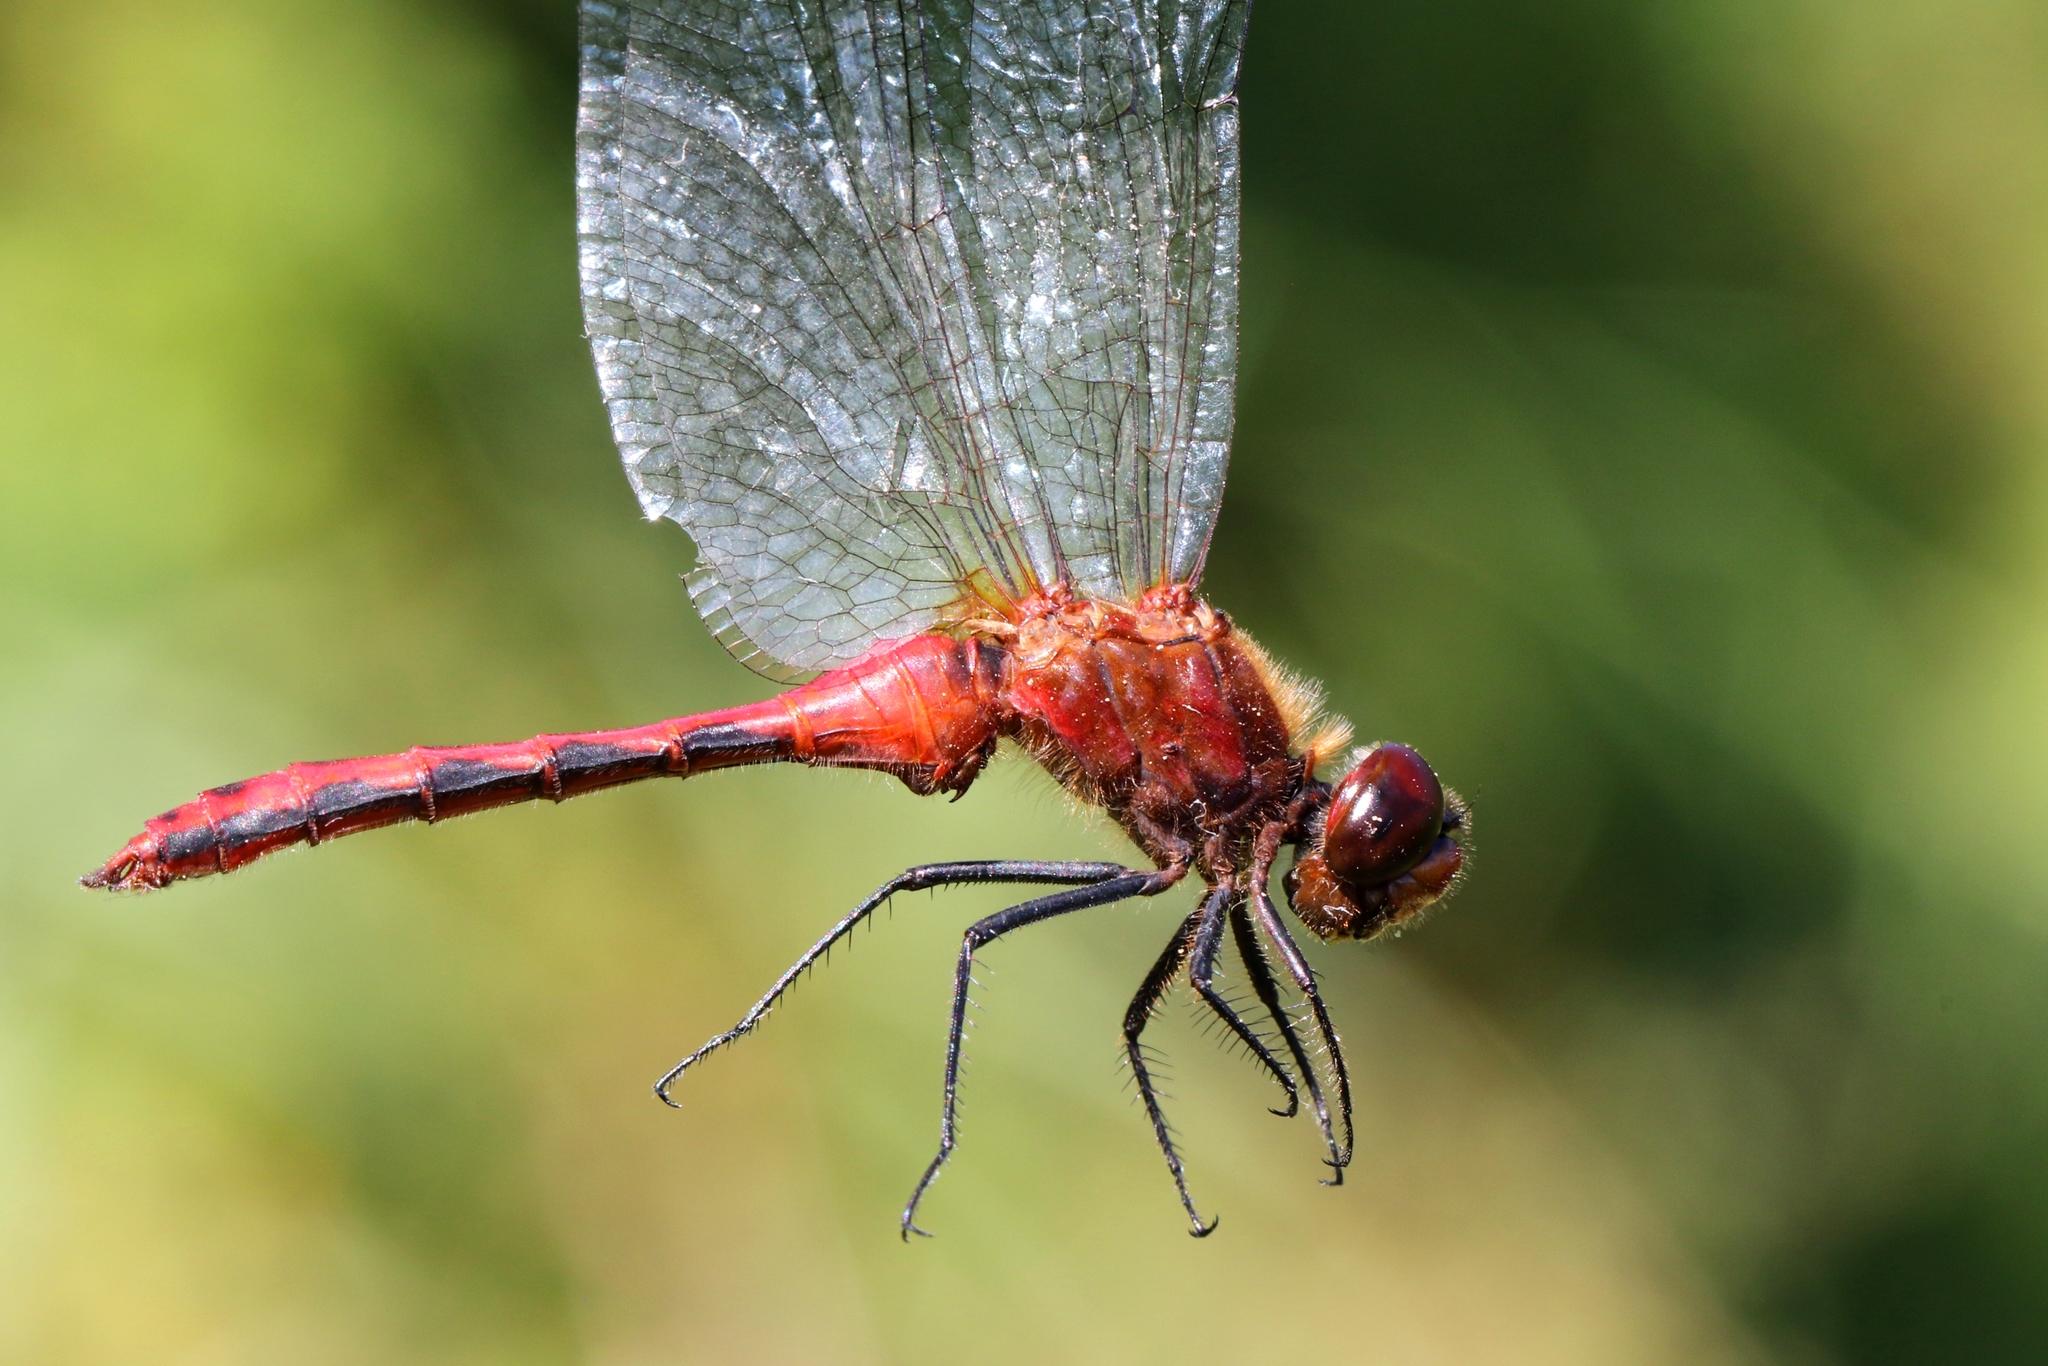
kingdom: Animalia
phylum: Arthropoda
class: Insecta
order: Odonata
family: Libellulidae
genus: Sympetrum
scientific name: Sympetrum internum
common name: Cherry-faced meadowhawk
